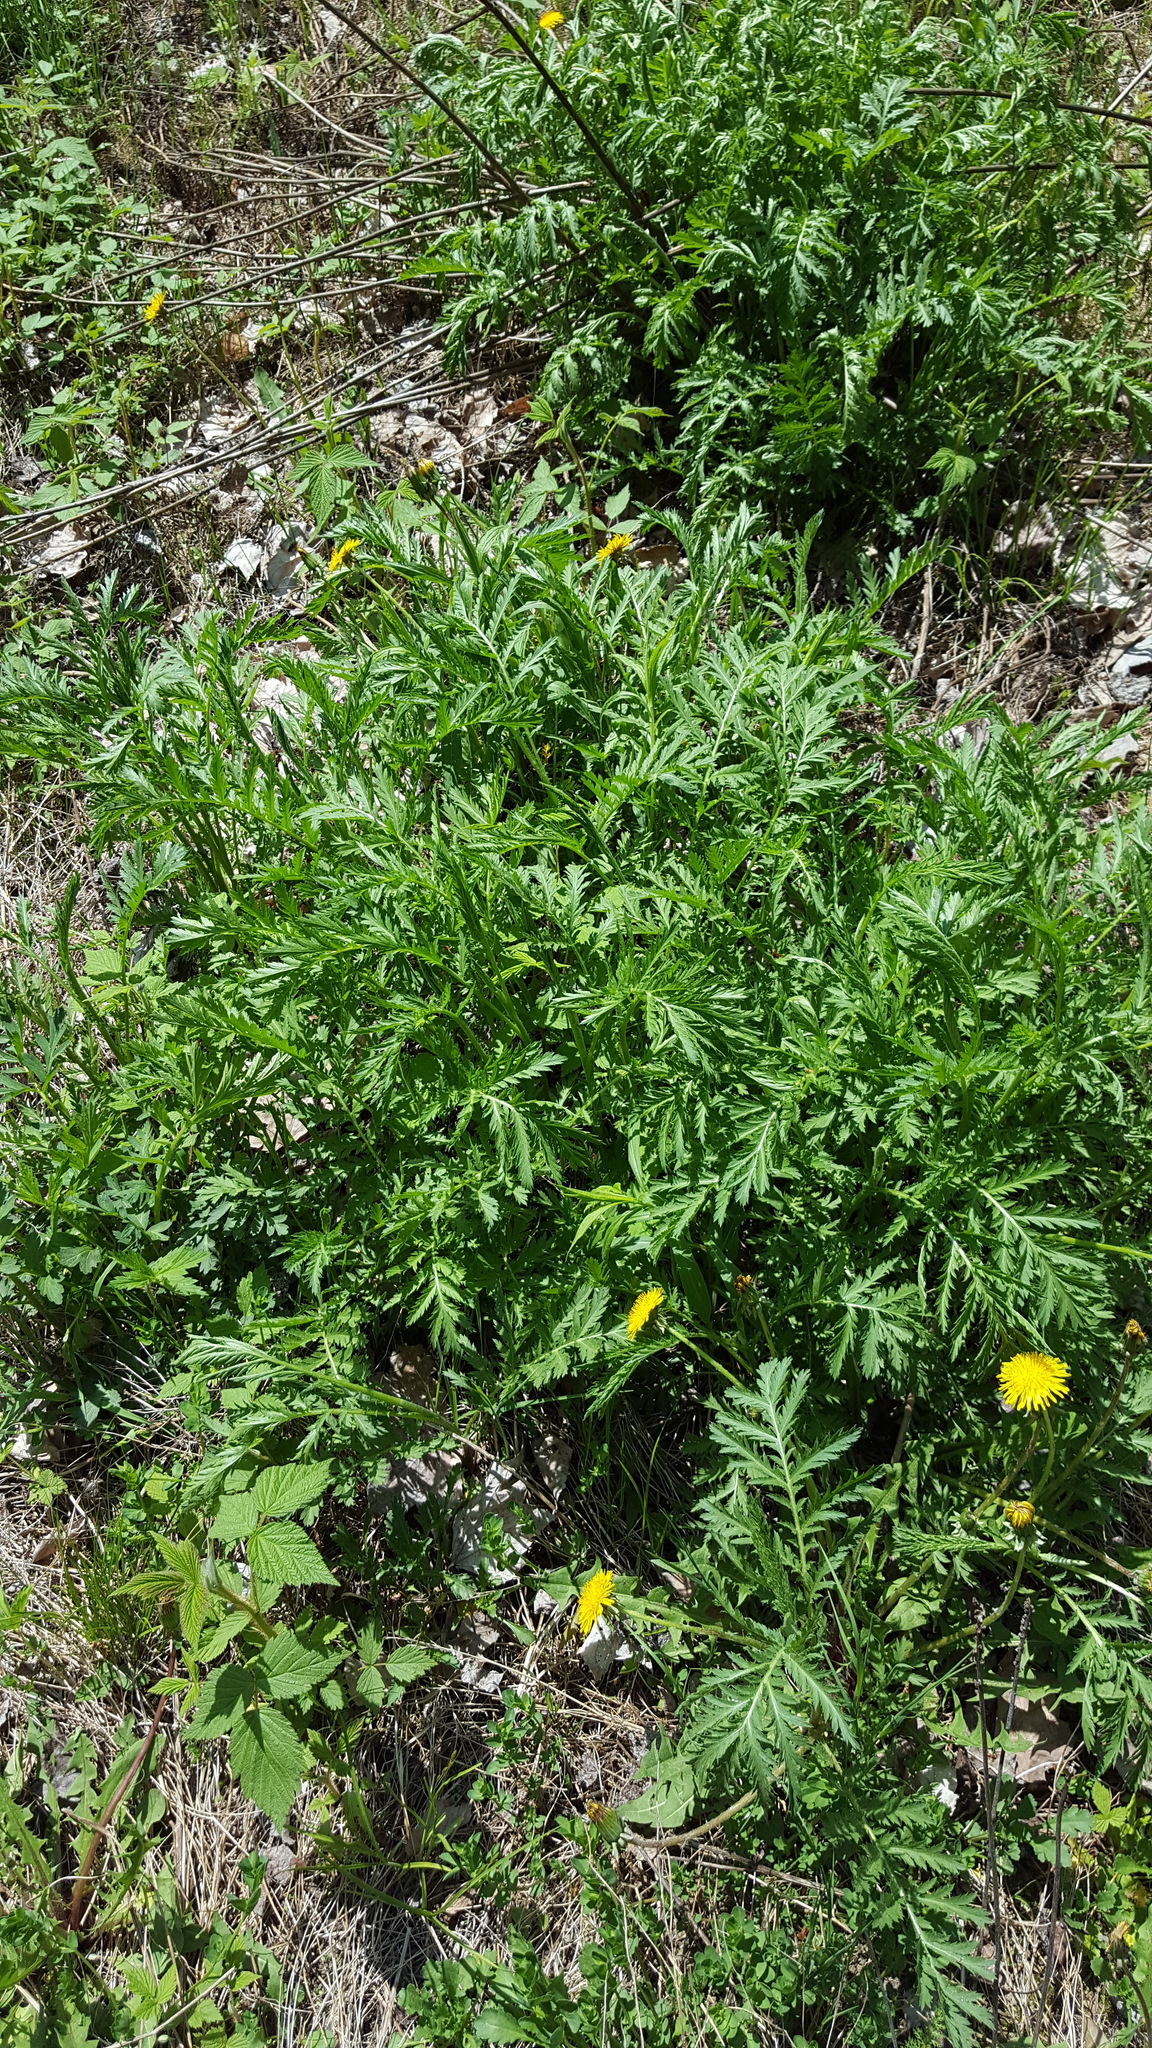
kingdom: Plantae
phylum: Tracheophyta
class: Magnoliopsida
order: Asterales
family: Asteraceae
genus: Tanacetum
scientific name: Tanacetum vulgare
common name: Common tansy
